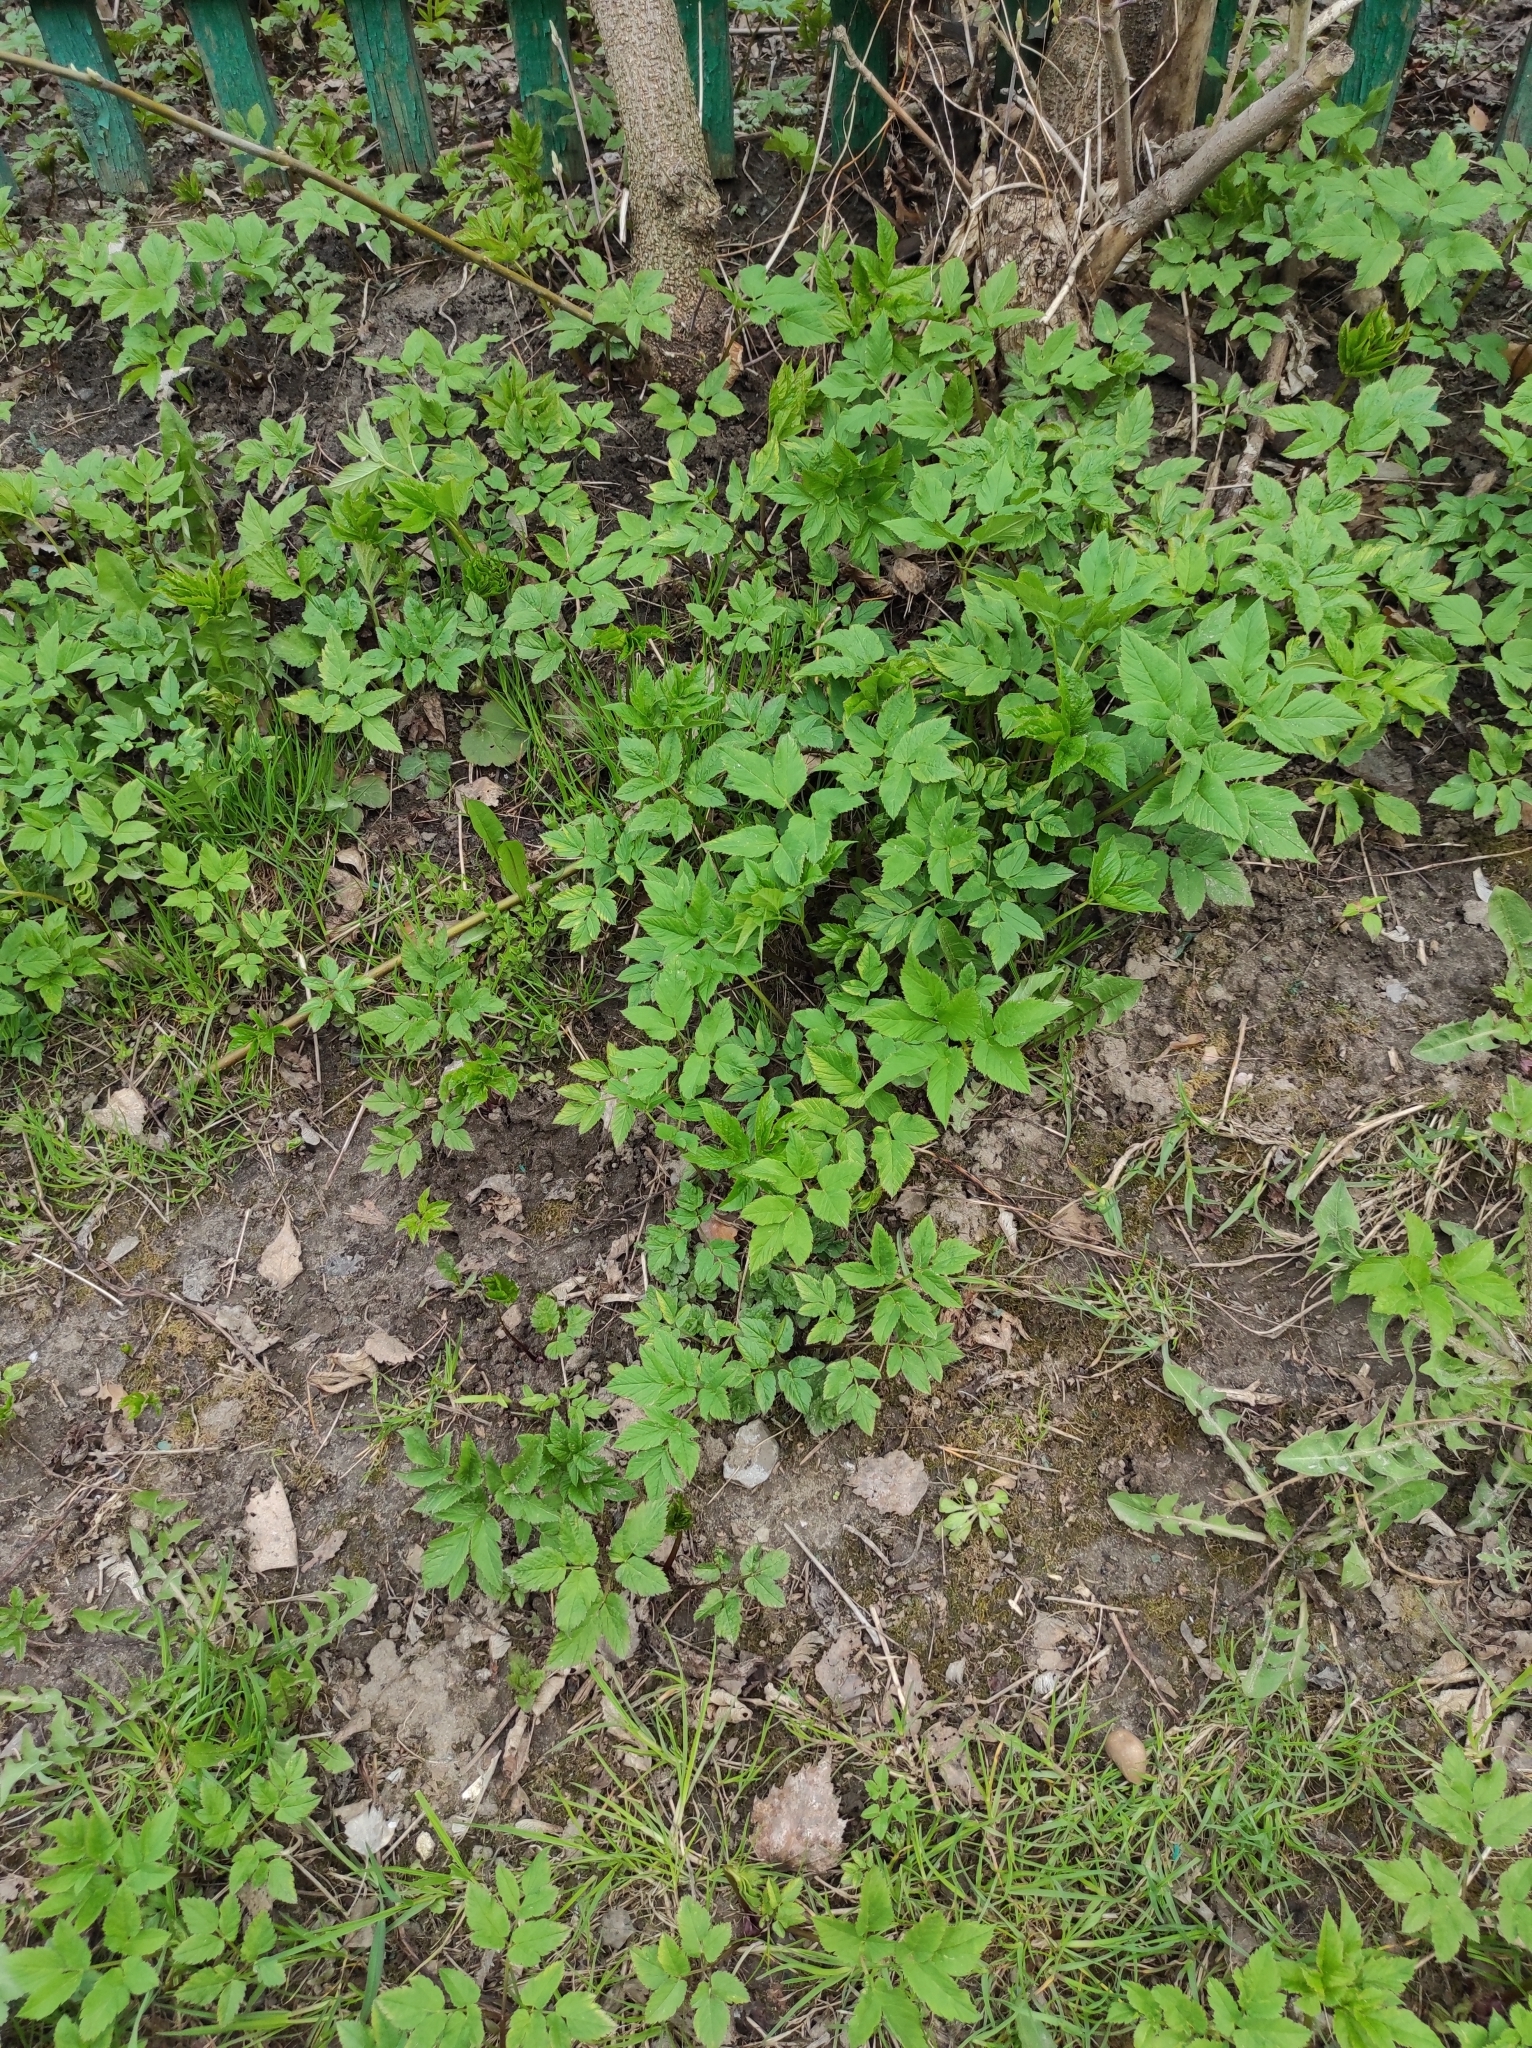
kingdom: Plantae
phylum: Tracheophyta
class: Magnoliopsida
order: Apiales
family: Apiaceae
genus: Aegopodium
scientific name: Aegopodium podagraria
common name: Ground-elder
